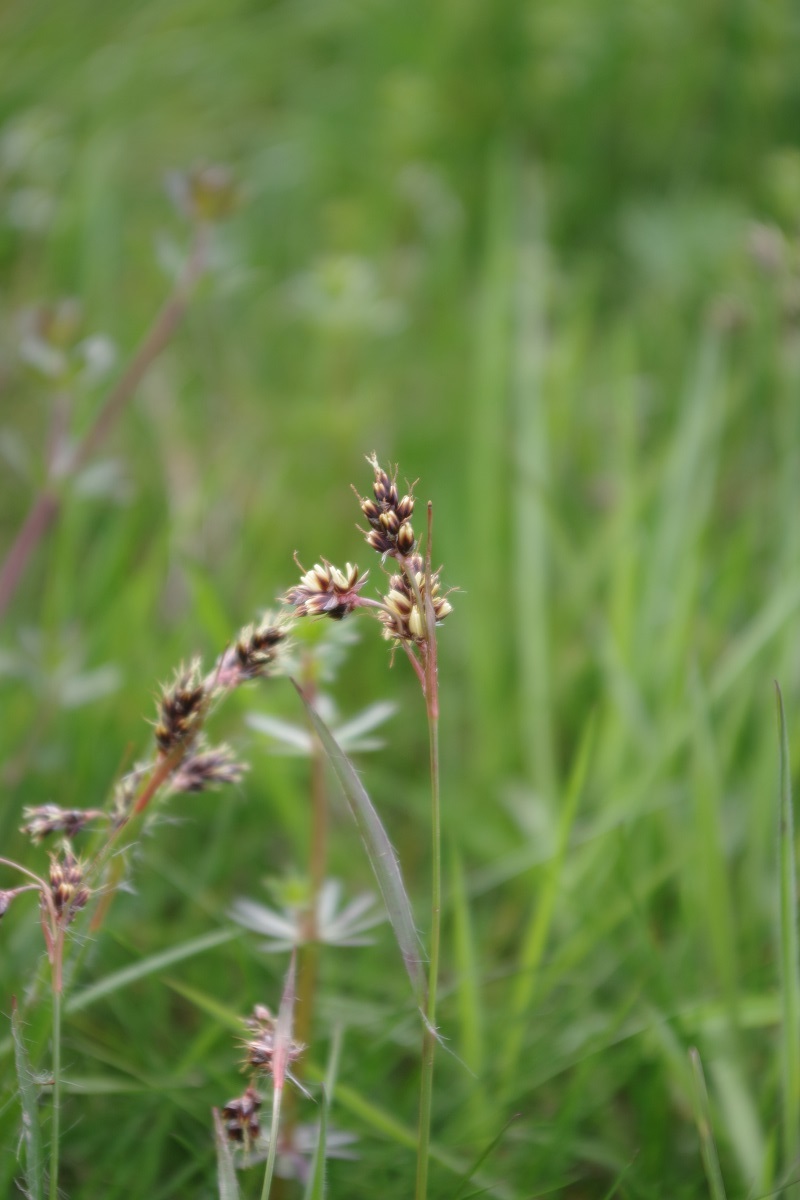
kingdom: Plantae
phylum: Tracheophyta
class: Liliopsida
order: Poales
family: Juncaceae
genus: Luzula
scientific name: Luzula campestris
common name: Field wood-rush
